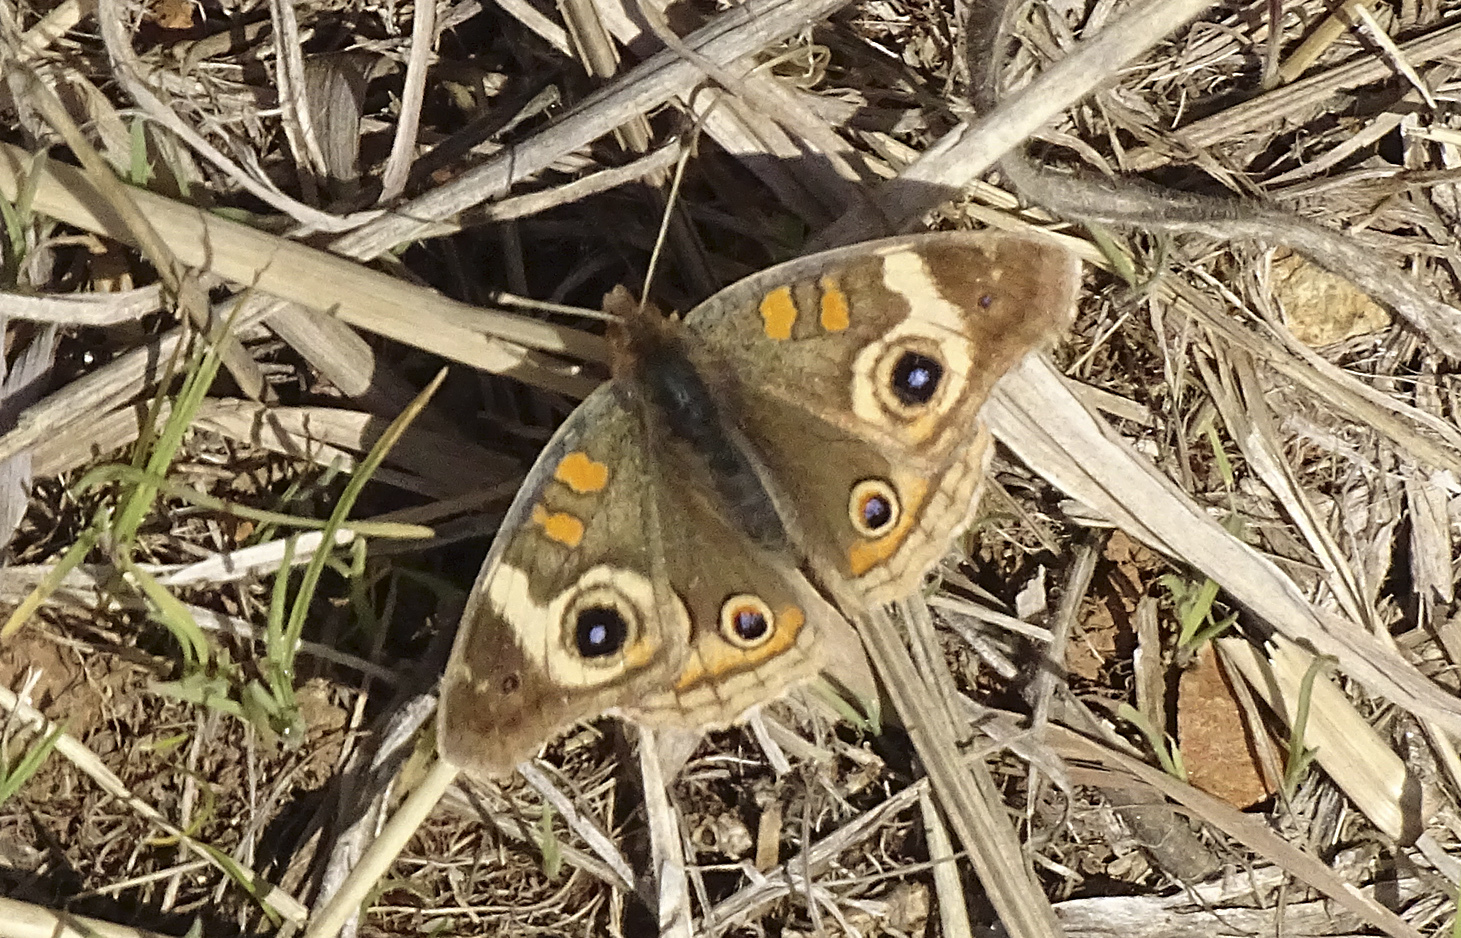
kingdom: Animalia
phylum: Arthropoda
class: Insecta
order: Lepidoptera
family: Nymphalidae
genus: Junonia
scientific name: Junonia grisea
